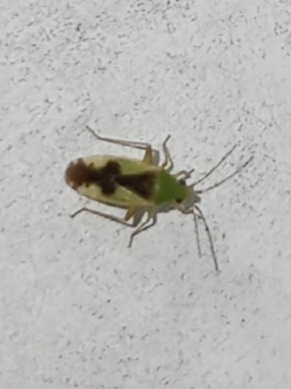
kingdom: Animalia
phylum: Arthropoda
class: Insecta
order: Hemiptera
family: Miridae
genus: Reuteroscopus
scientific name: Reuteroscopus ornatus
